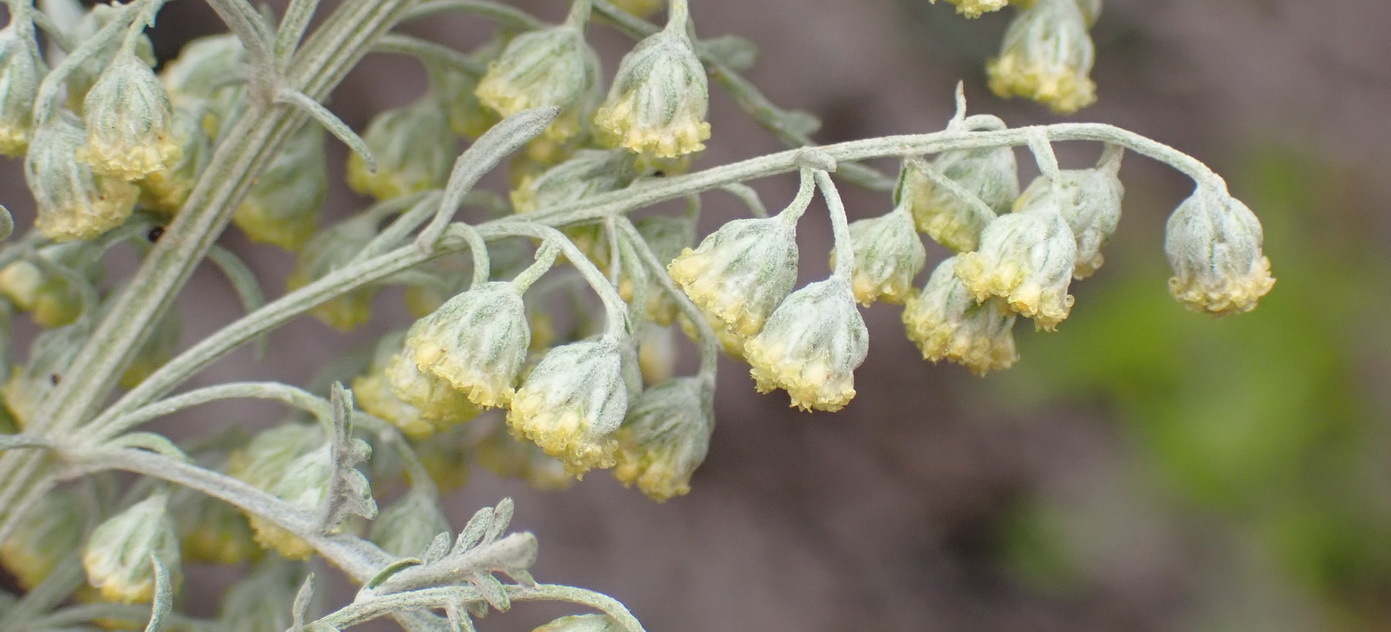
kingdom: Plantae
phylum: Tracheophyta
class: Magnoliopsida
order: Asterales
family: Asteraceae
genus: Artemisia
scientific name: Artemisia afra
